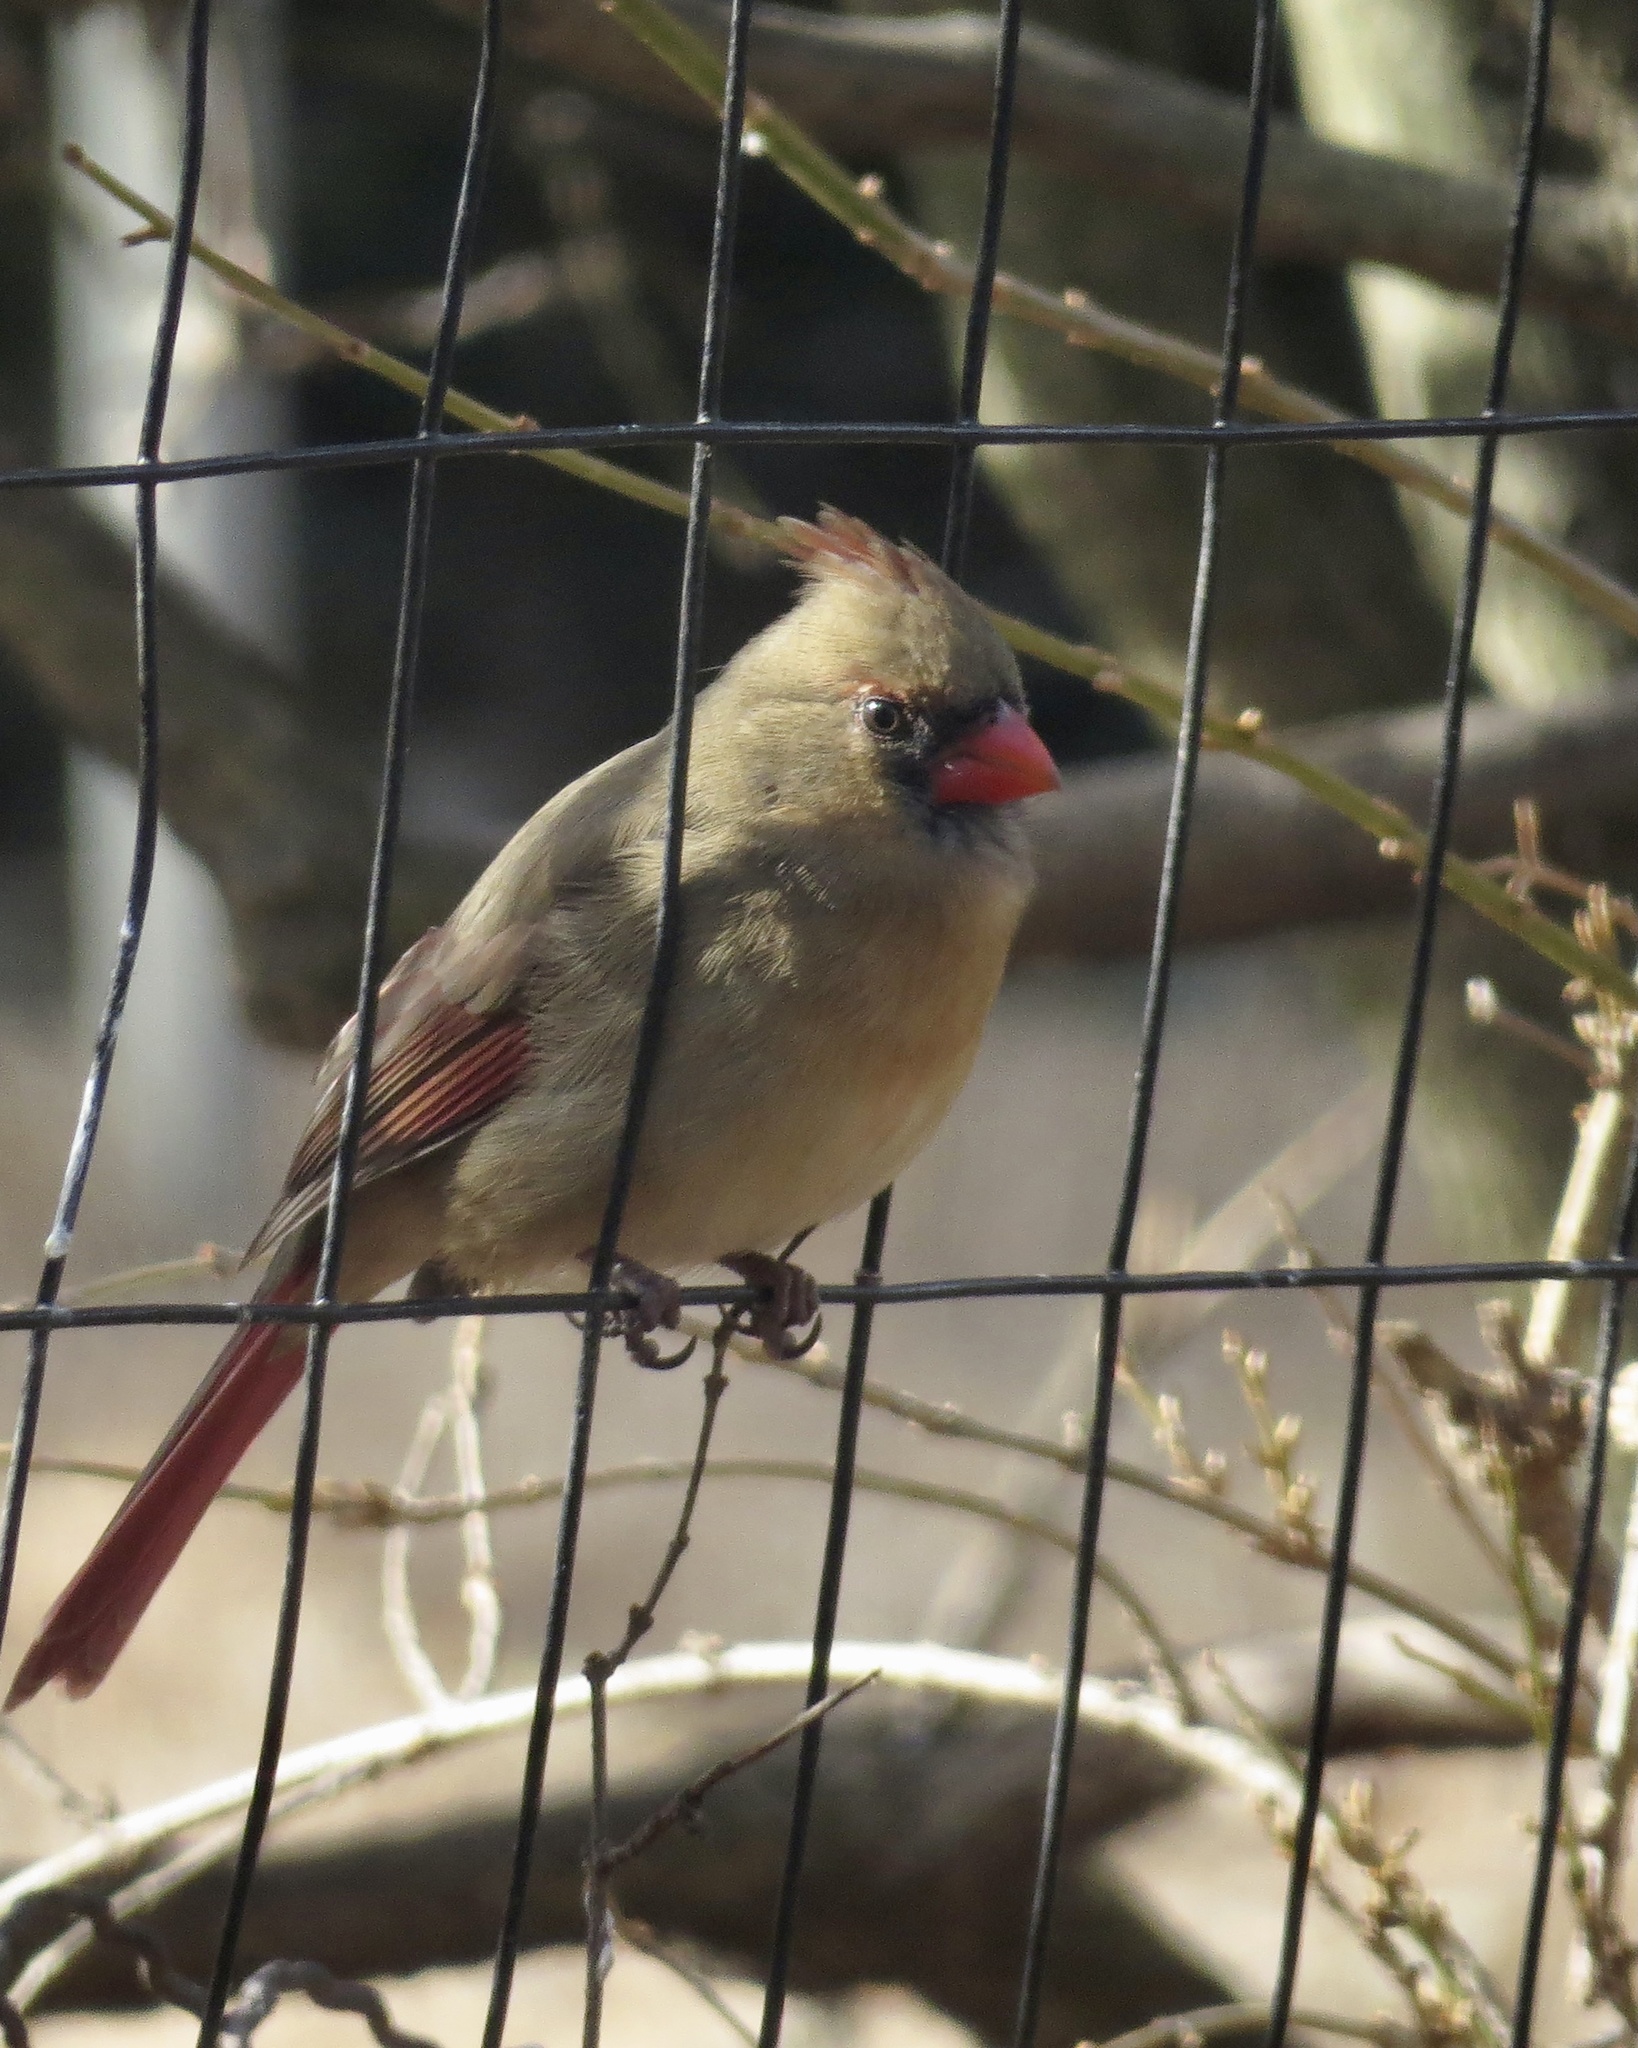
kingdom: Animalia
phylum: Chordata
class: Aves
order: Passeriformes
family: Cardinalidae
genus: Cardinalis
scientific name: Cardinalis cardinalis
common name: Northern cardinal
